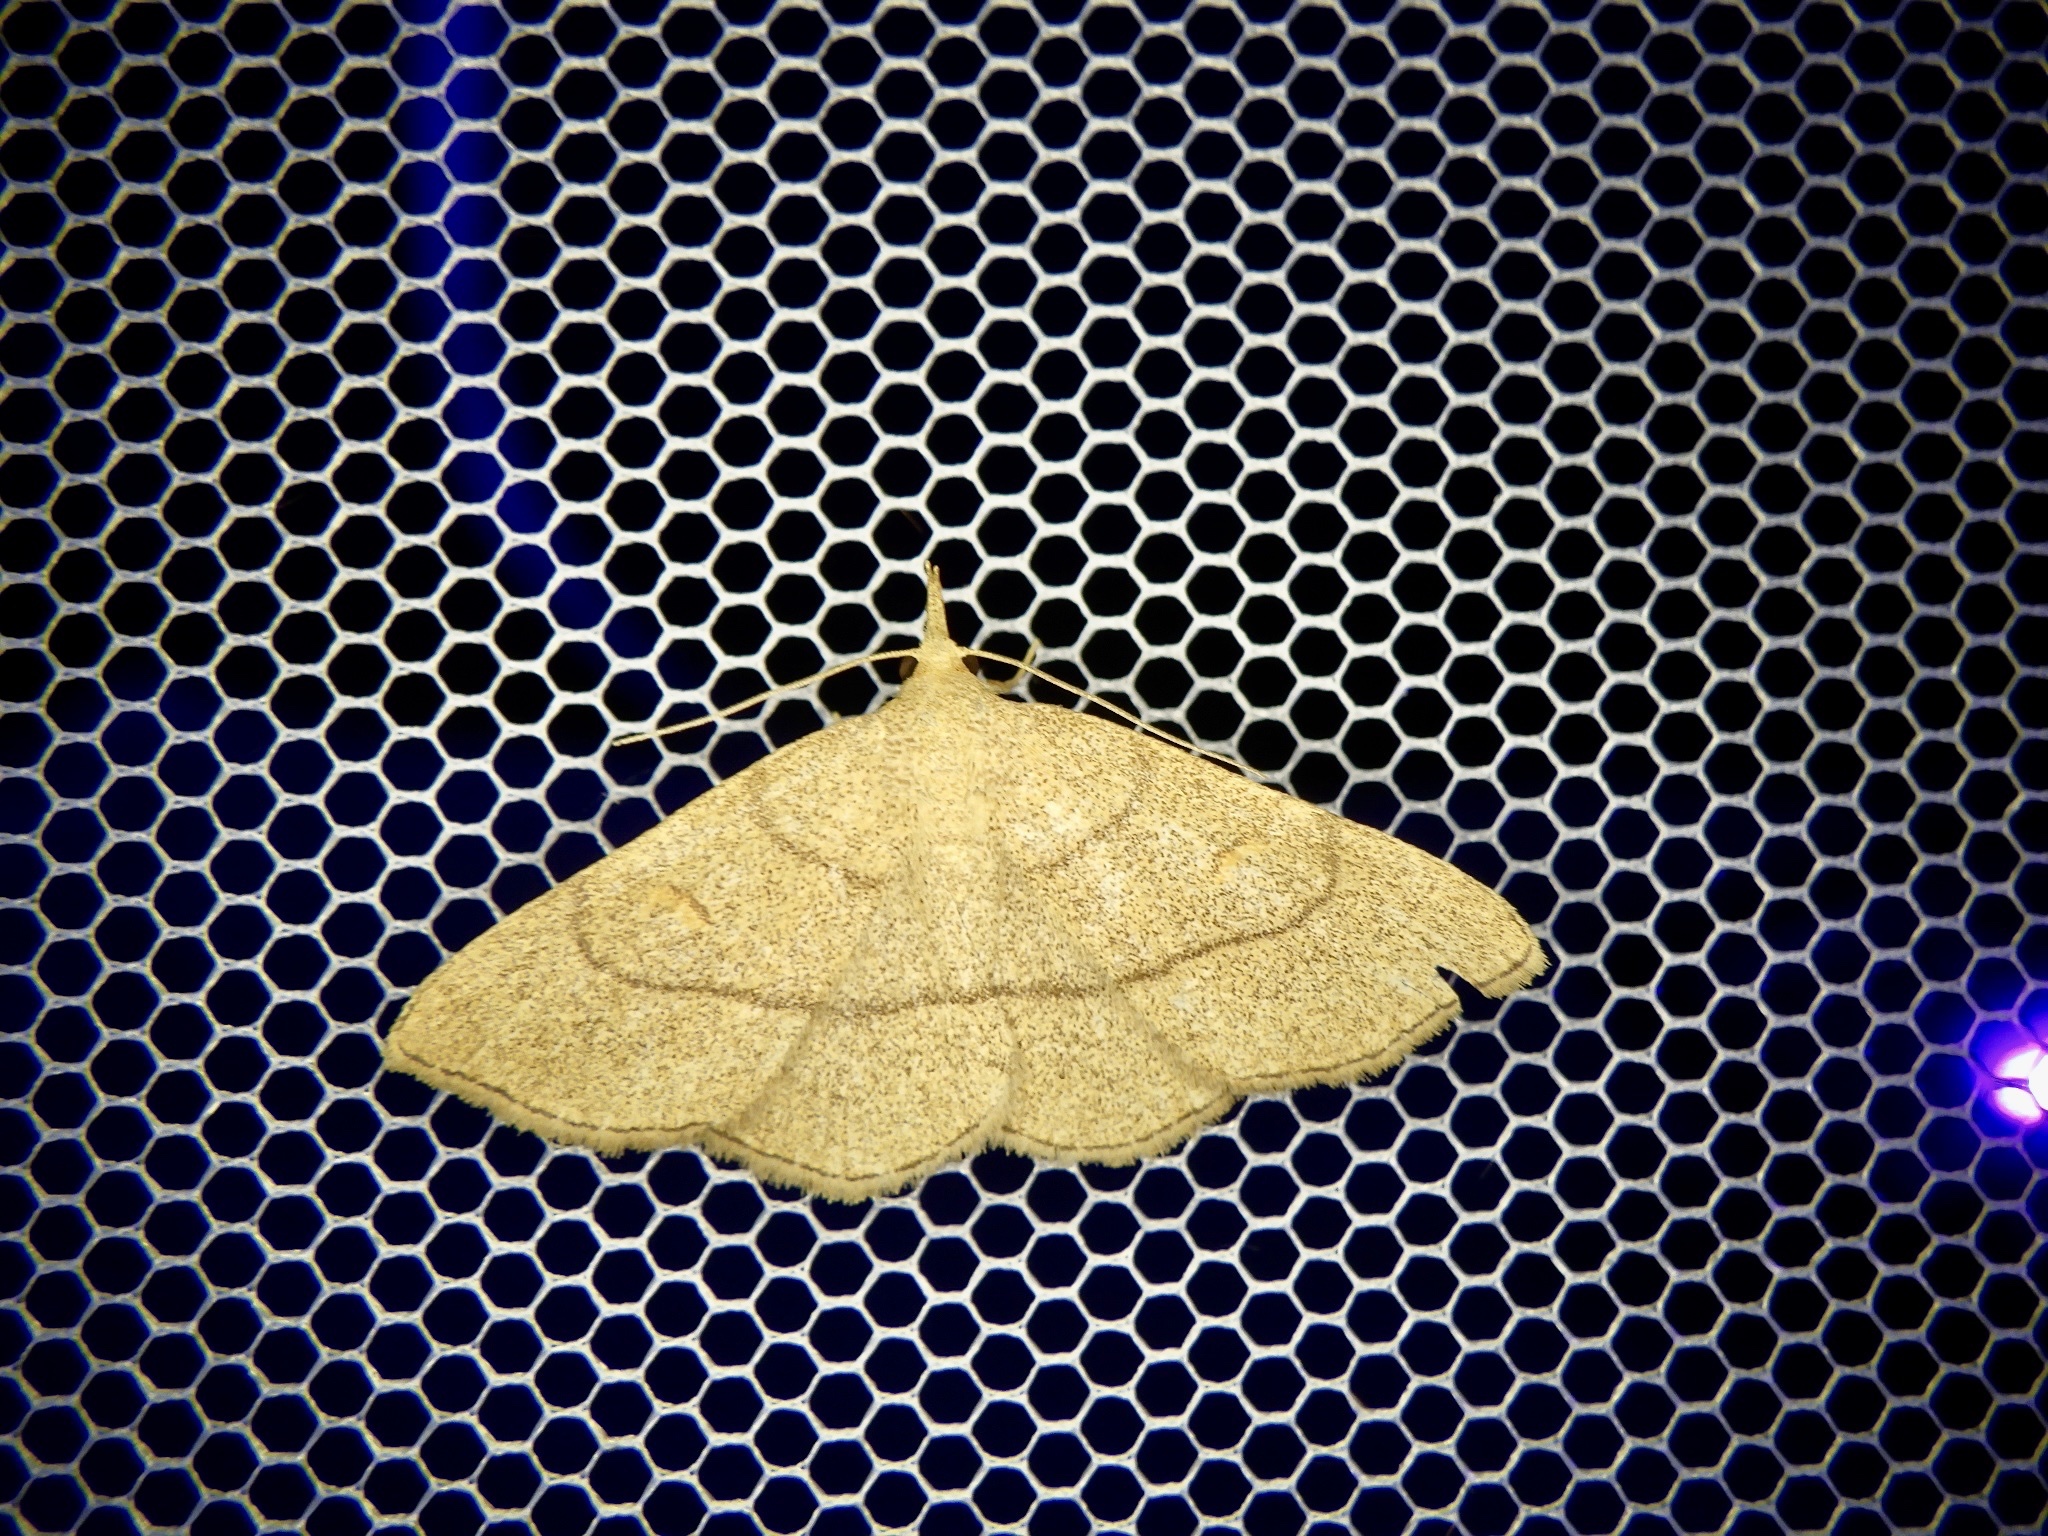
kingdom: Animalia
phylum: Arthropoda
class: Insecta
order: Lepidoptera
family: Erebidae
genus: Paracolax
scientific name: Paracolax tristalis
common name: Clay fan-foot
